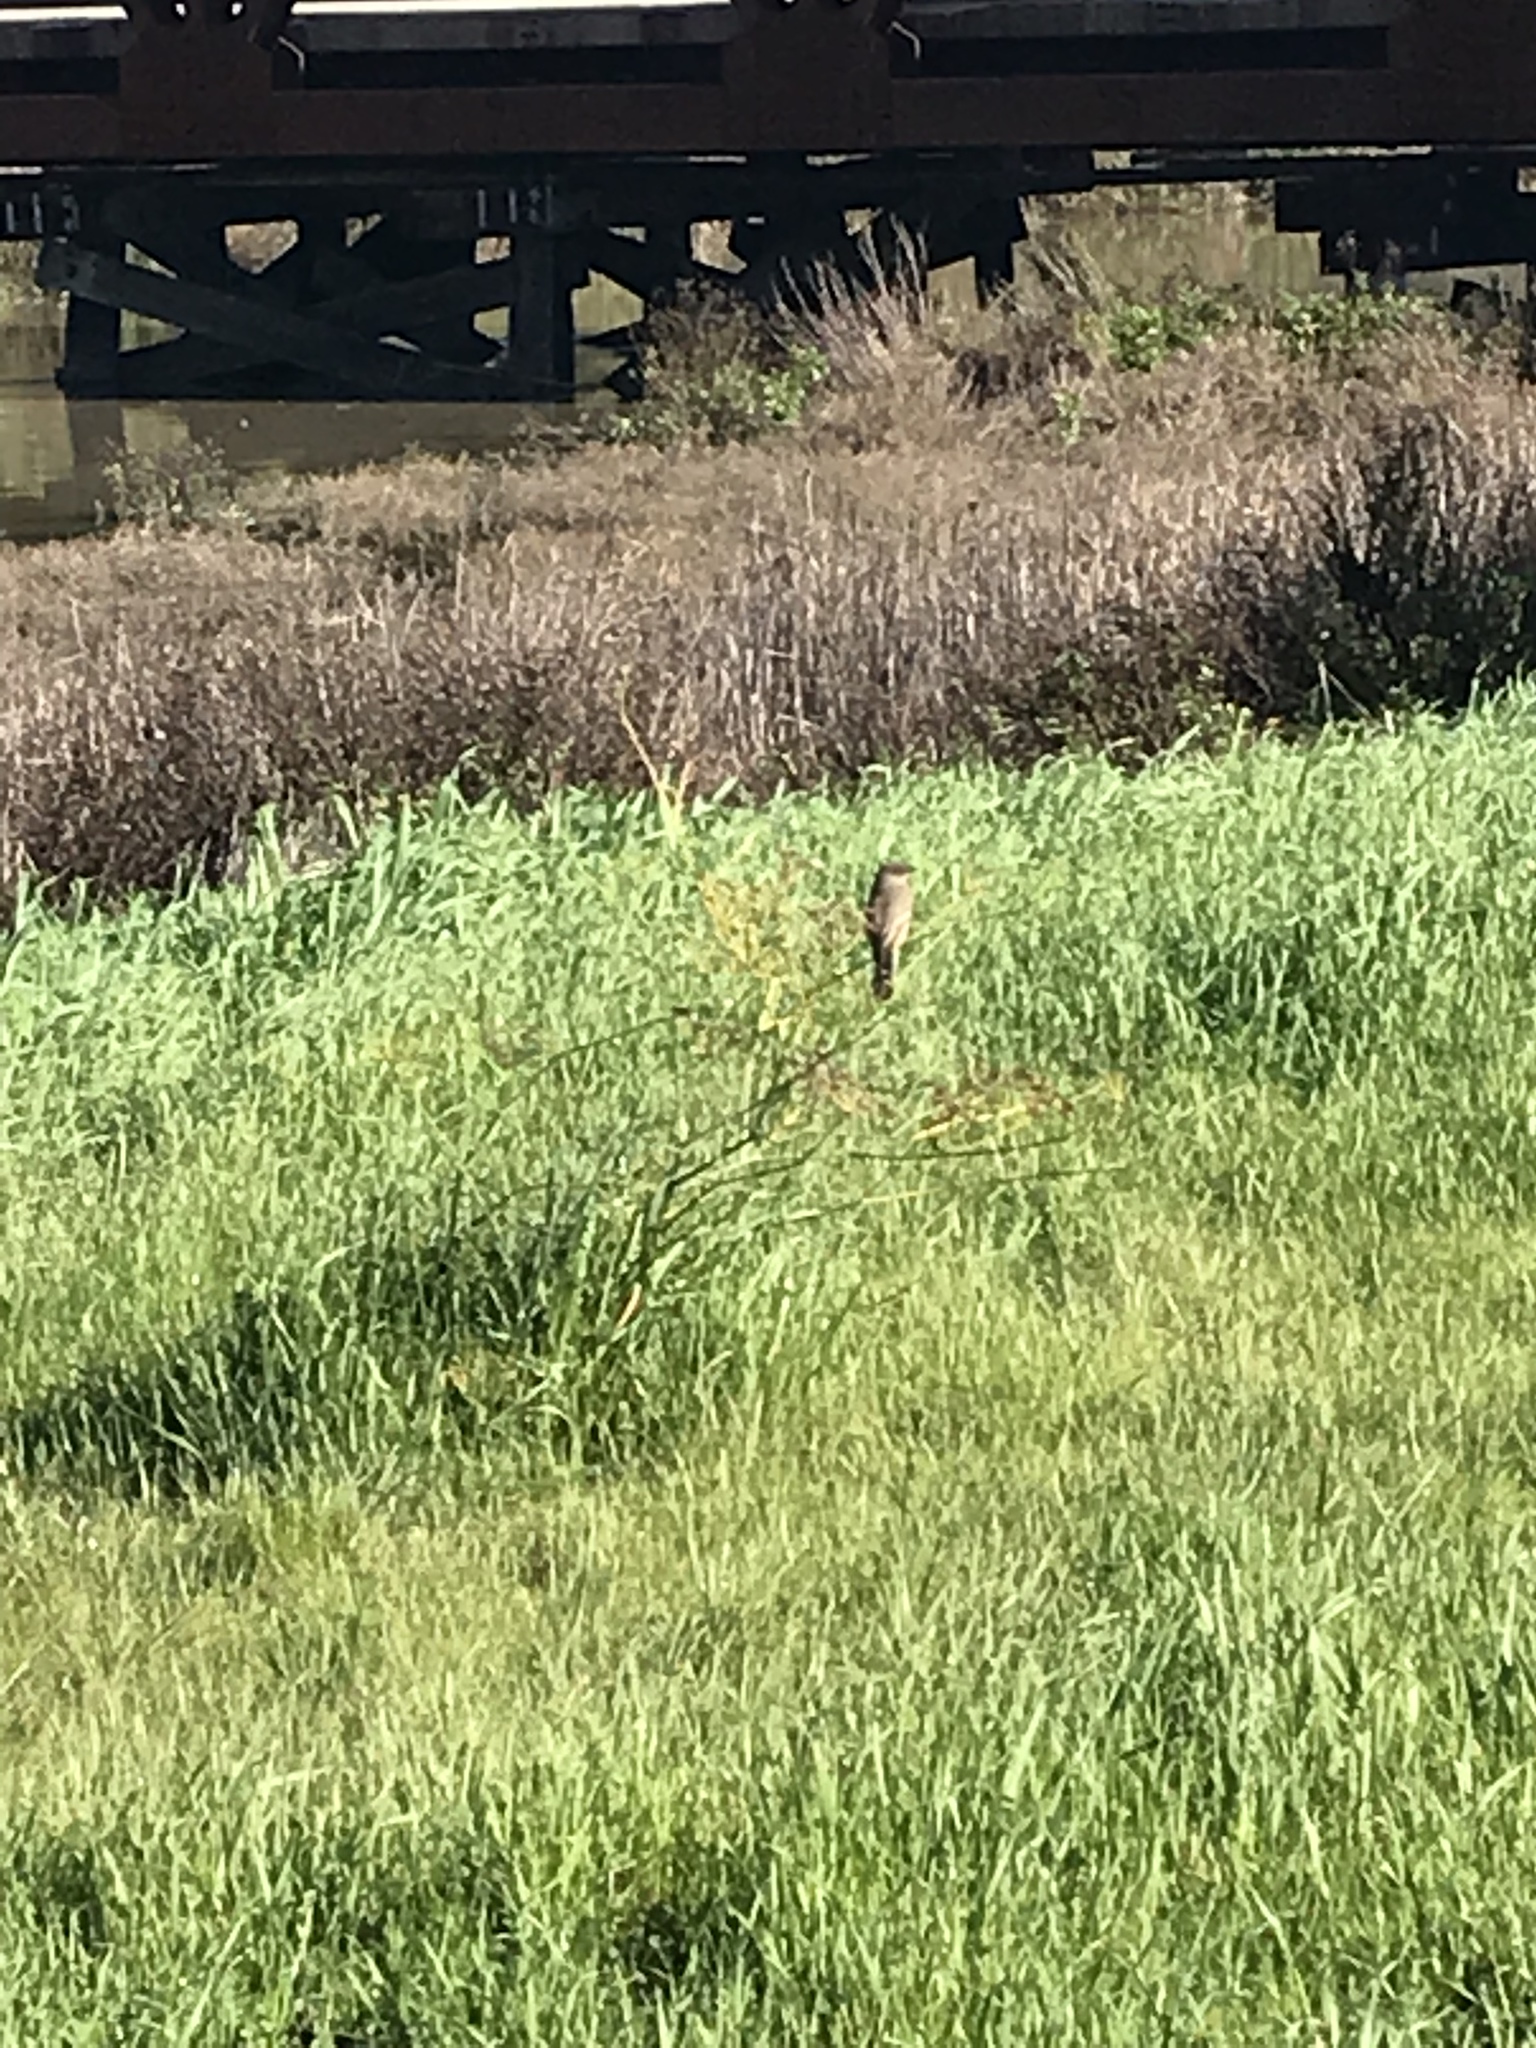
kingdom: Animalia
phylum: Chordata
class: Aves
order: Passeriformes
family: Tyrannidae
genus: Sayornis
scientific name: Sayornis saya
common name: Say's phoebe
